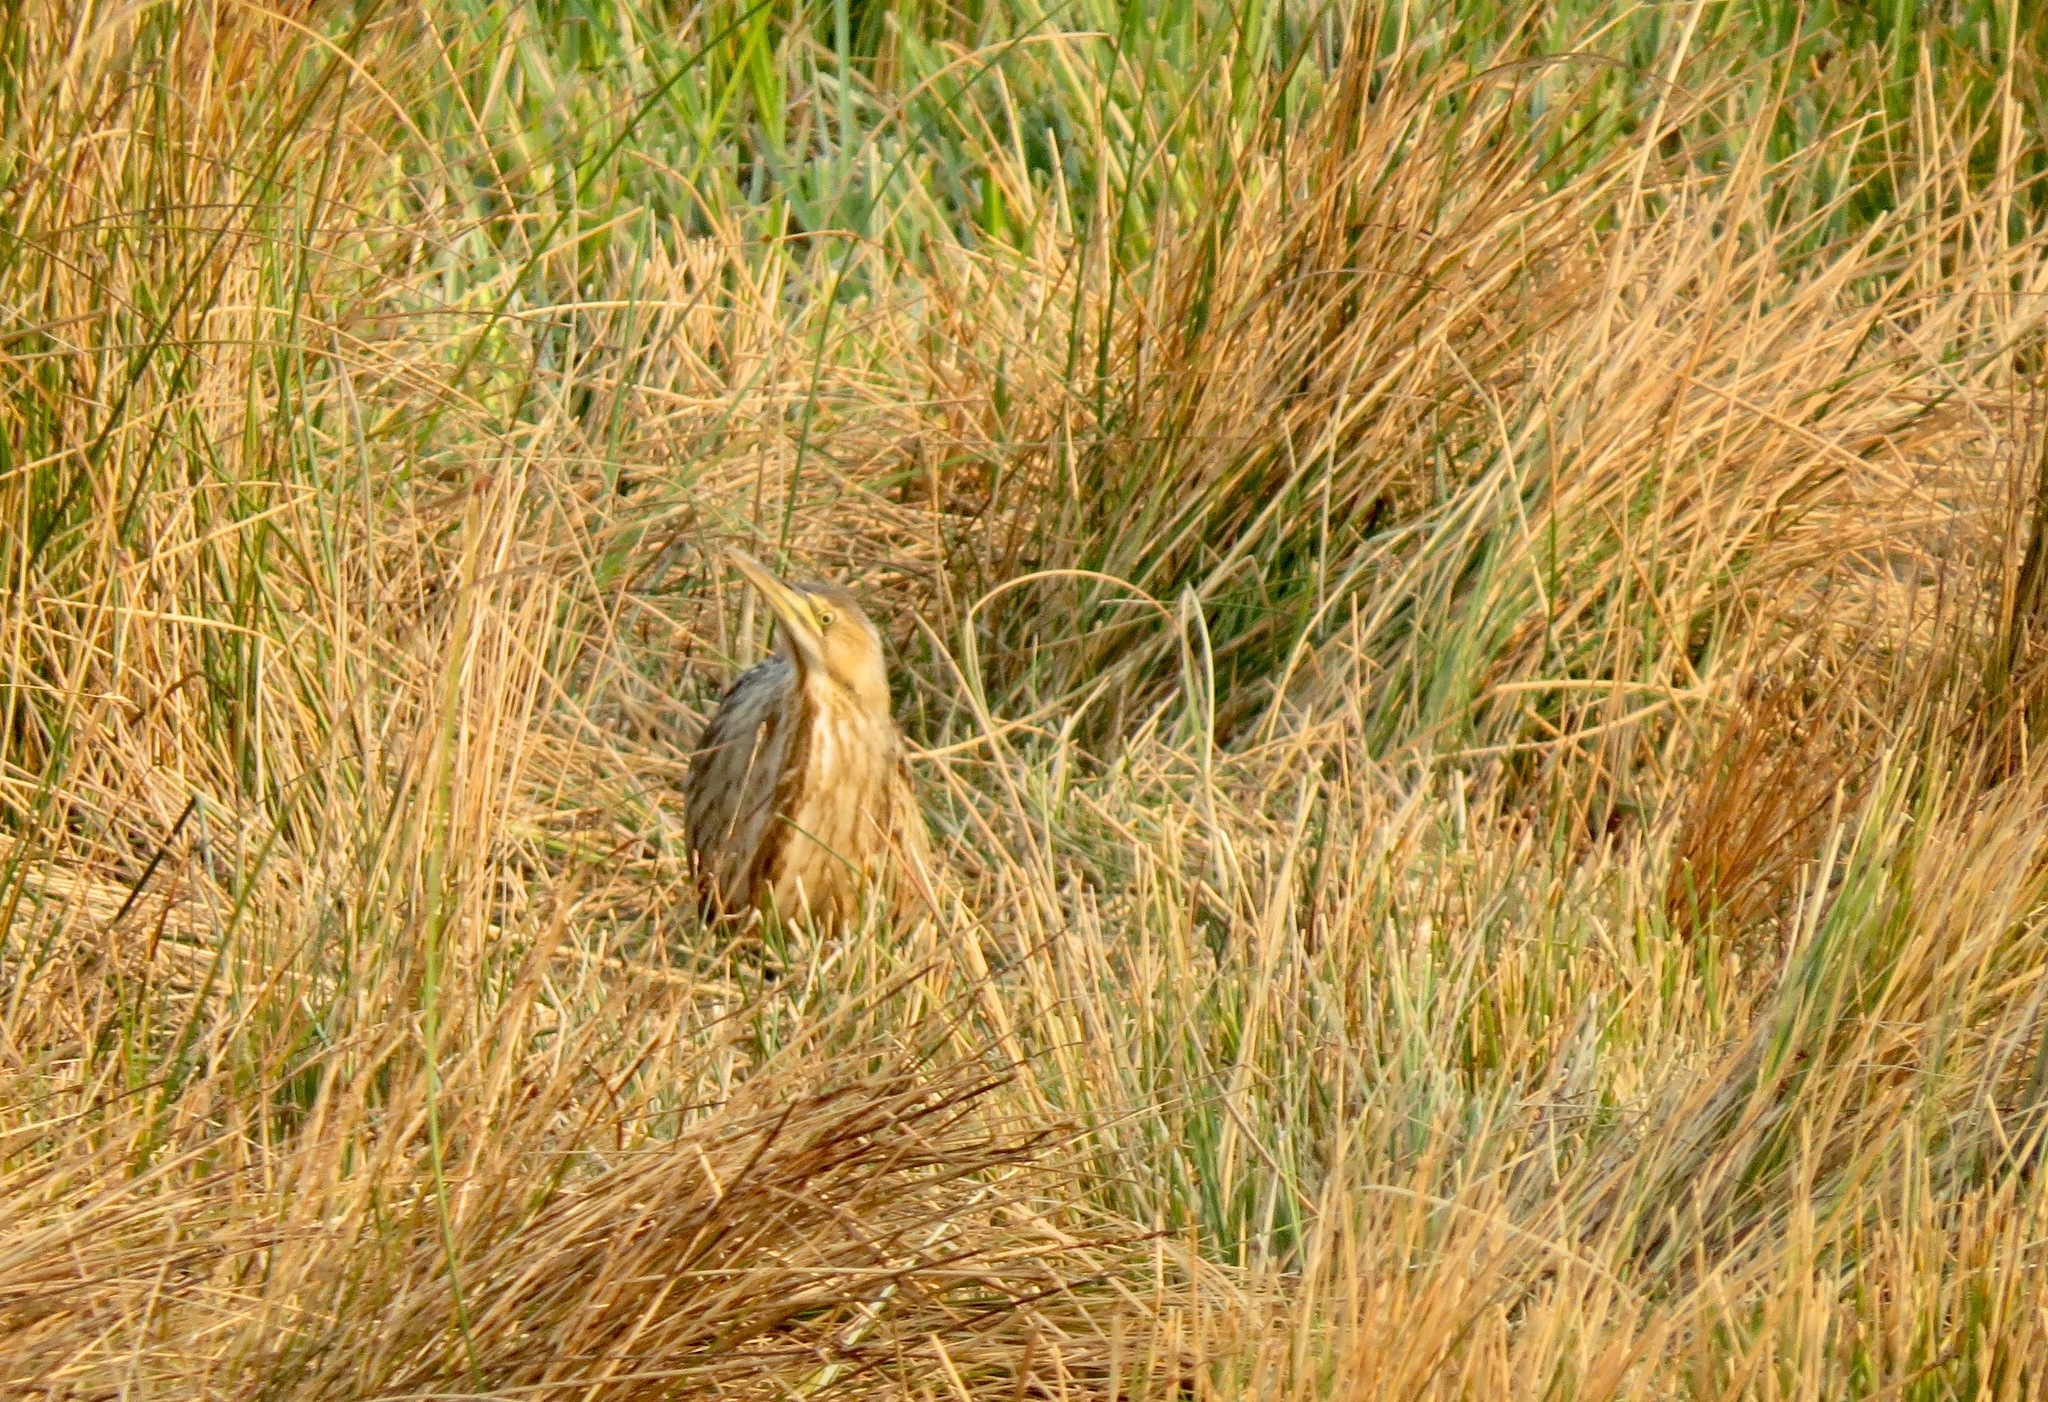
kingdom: Animalia
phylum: Chordata
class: Aves
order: Pelecaniformes
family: Ardeidae
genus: Botaurus
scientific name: Botaurus lentiginosus
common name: American bittern
